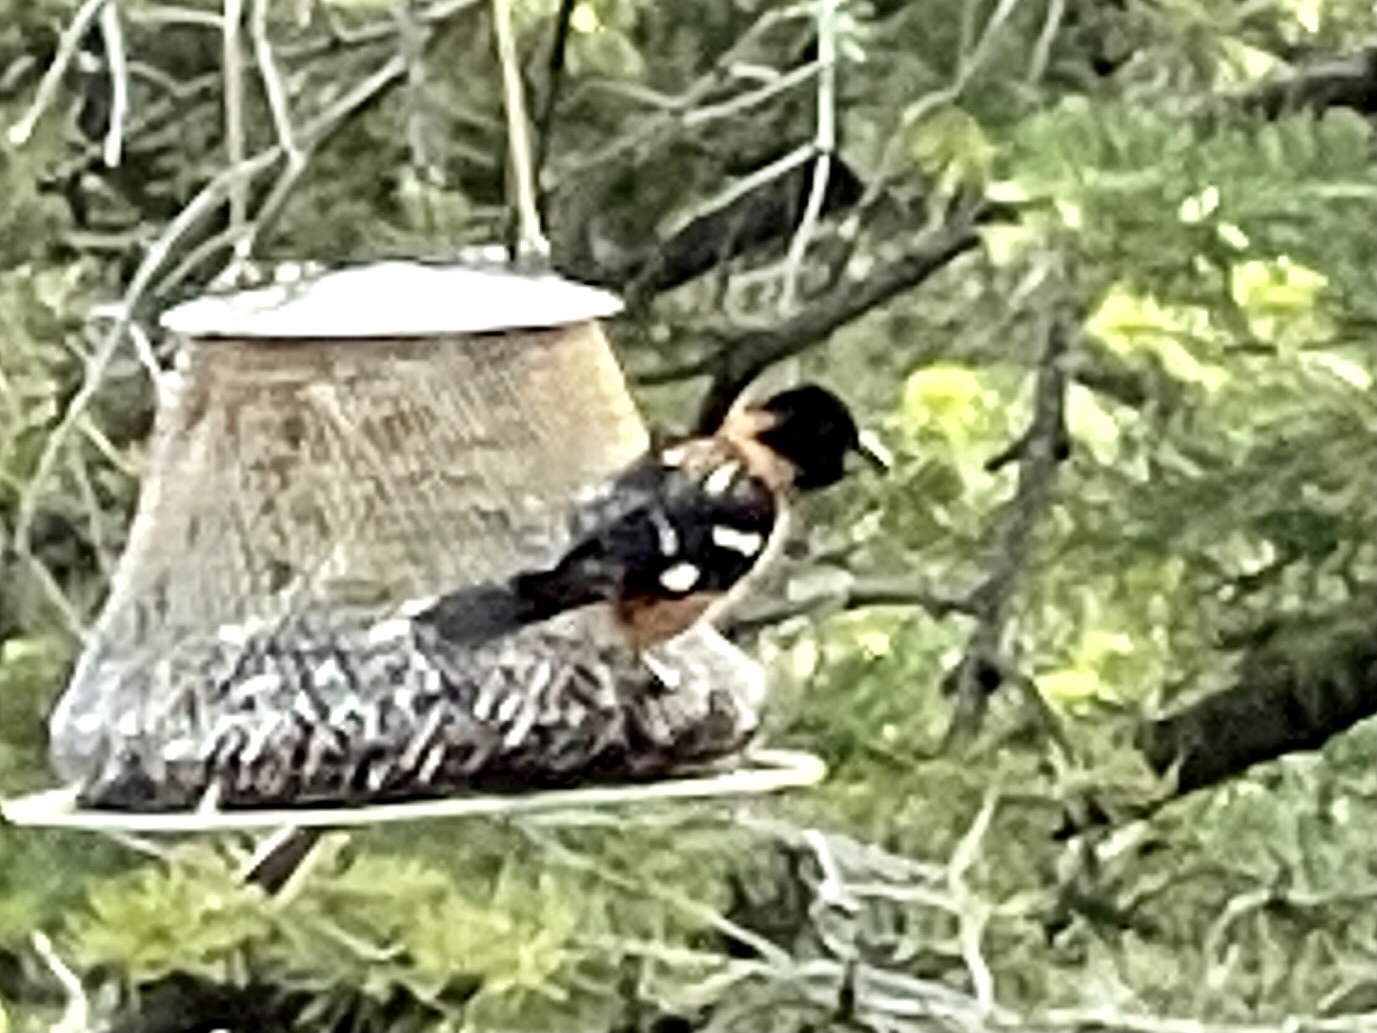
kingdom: Animalia
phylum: Chordata
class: Aves
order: Passeriformes
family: Cardinalidae
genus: Pheucticus
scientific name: Pheucticus melanocephalus
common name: Black-headed grosbeak
